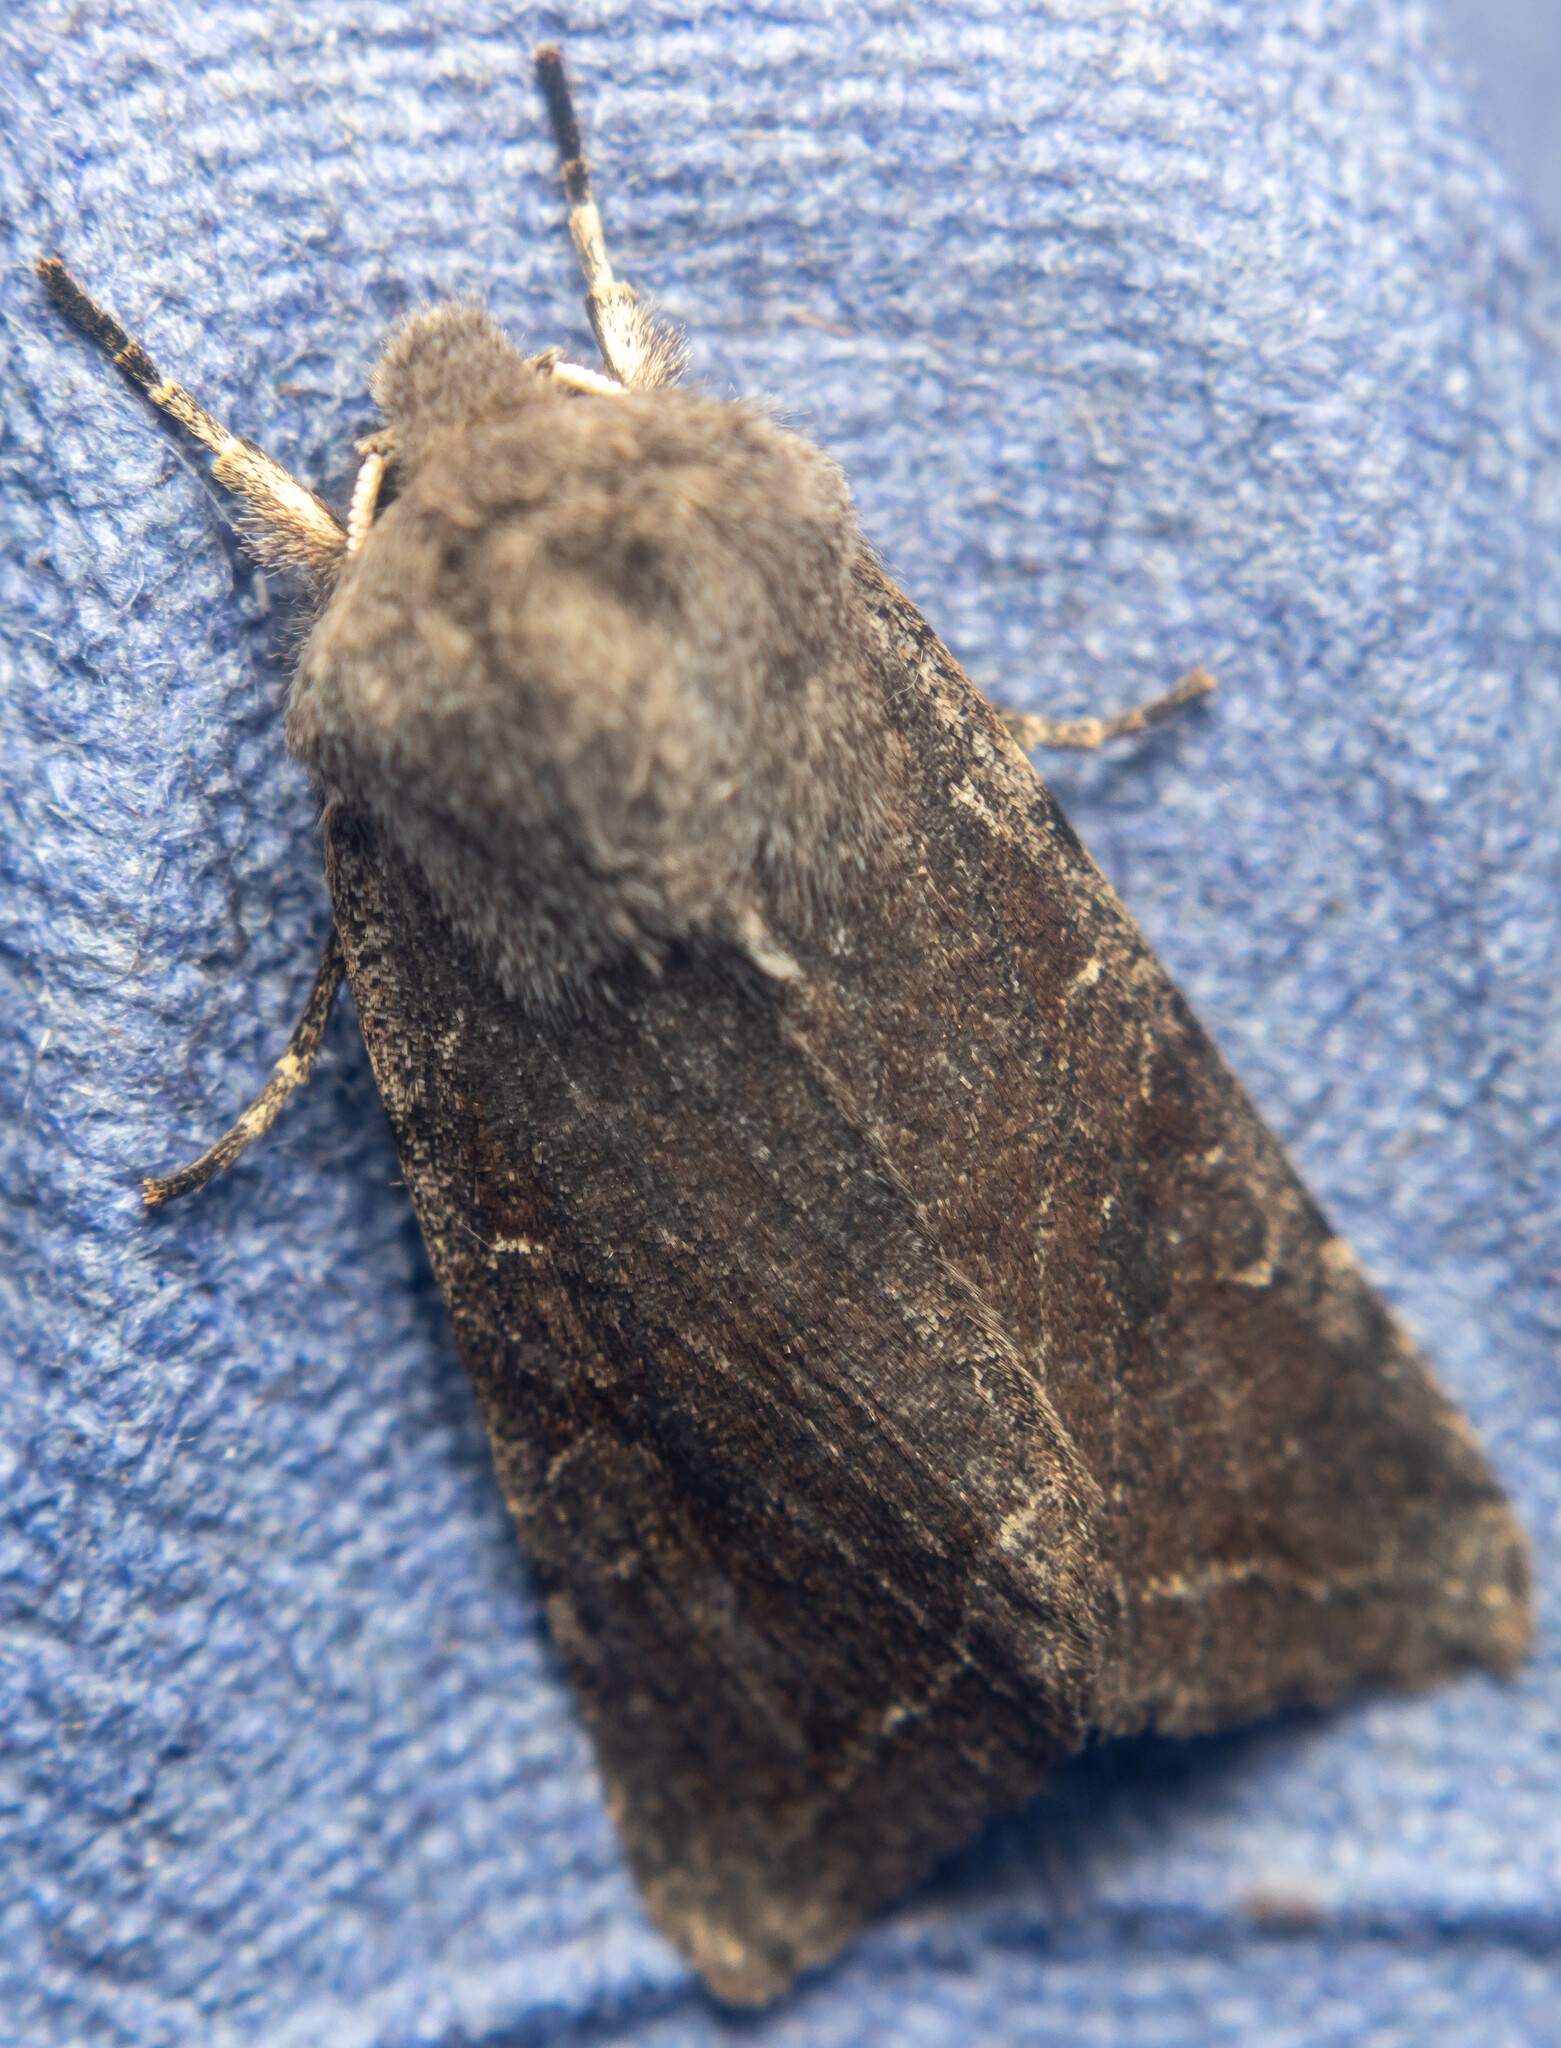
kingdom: Animalia
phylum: Arthropoda
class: Insecta
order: Lepidoptera
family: Noctuidae
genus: Orthosia
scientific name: Orthosia incerta
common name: Clouded drab
